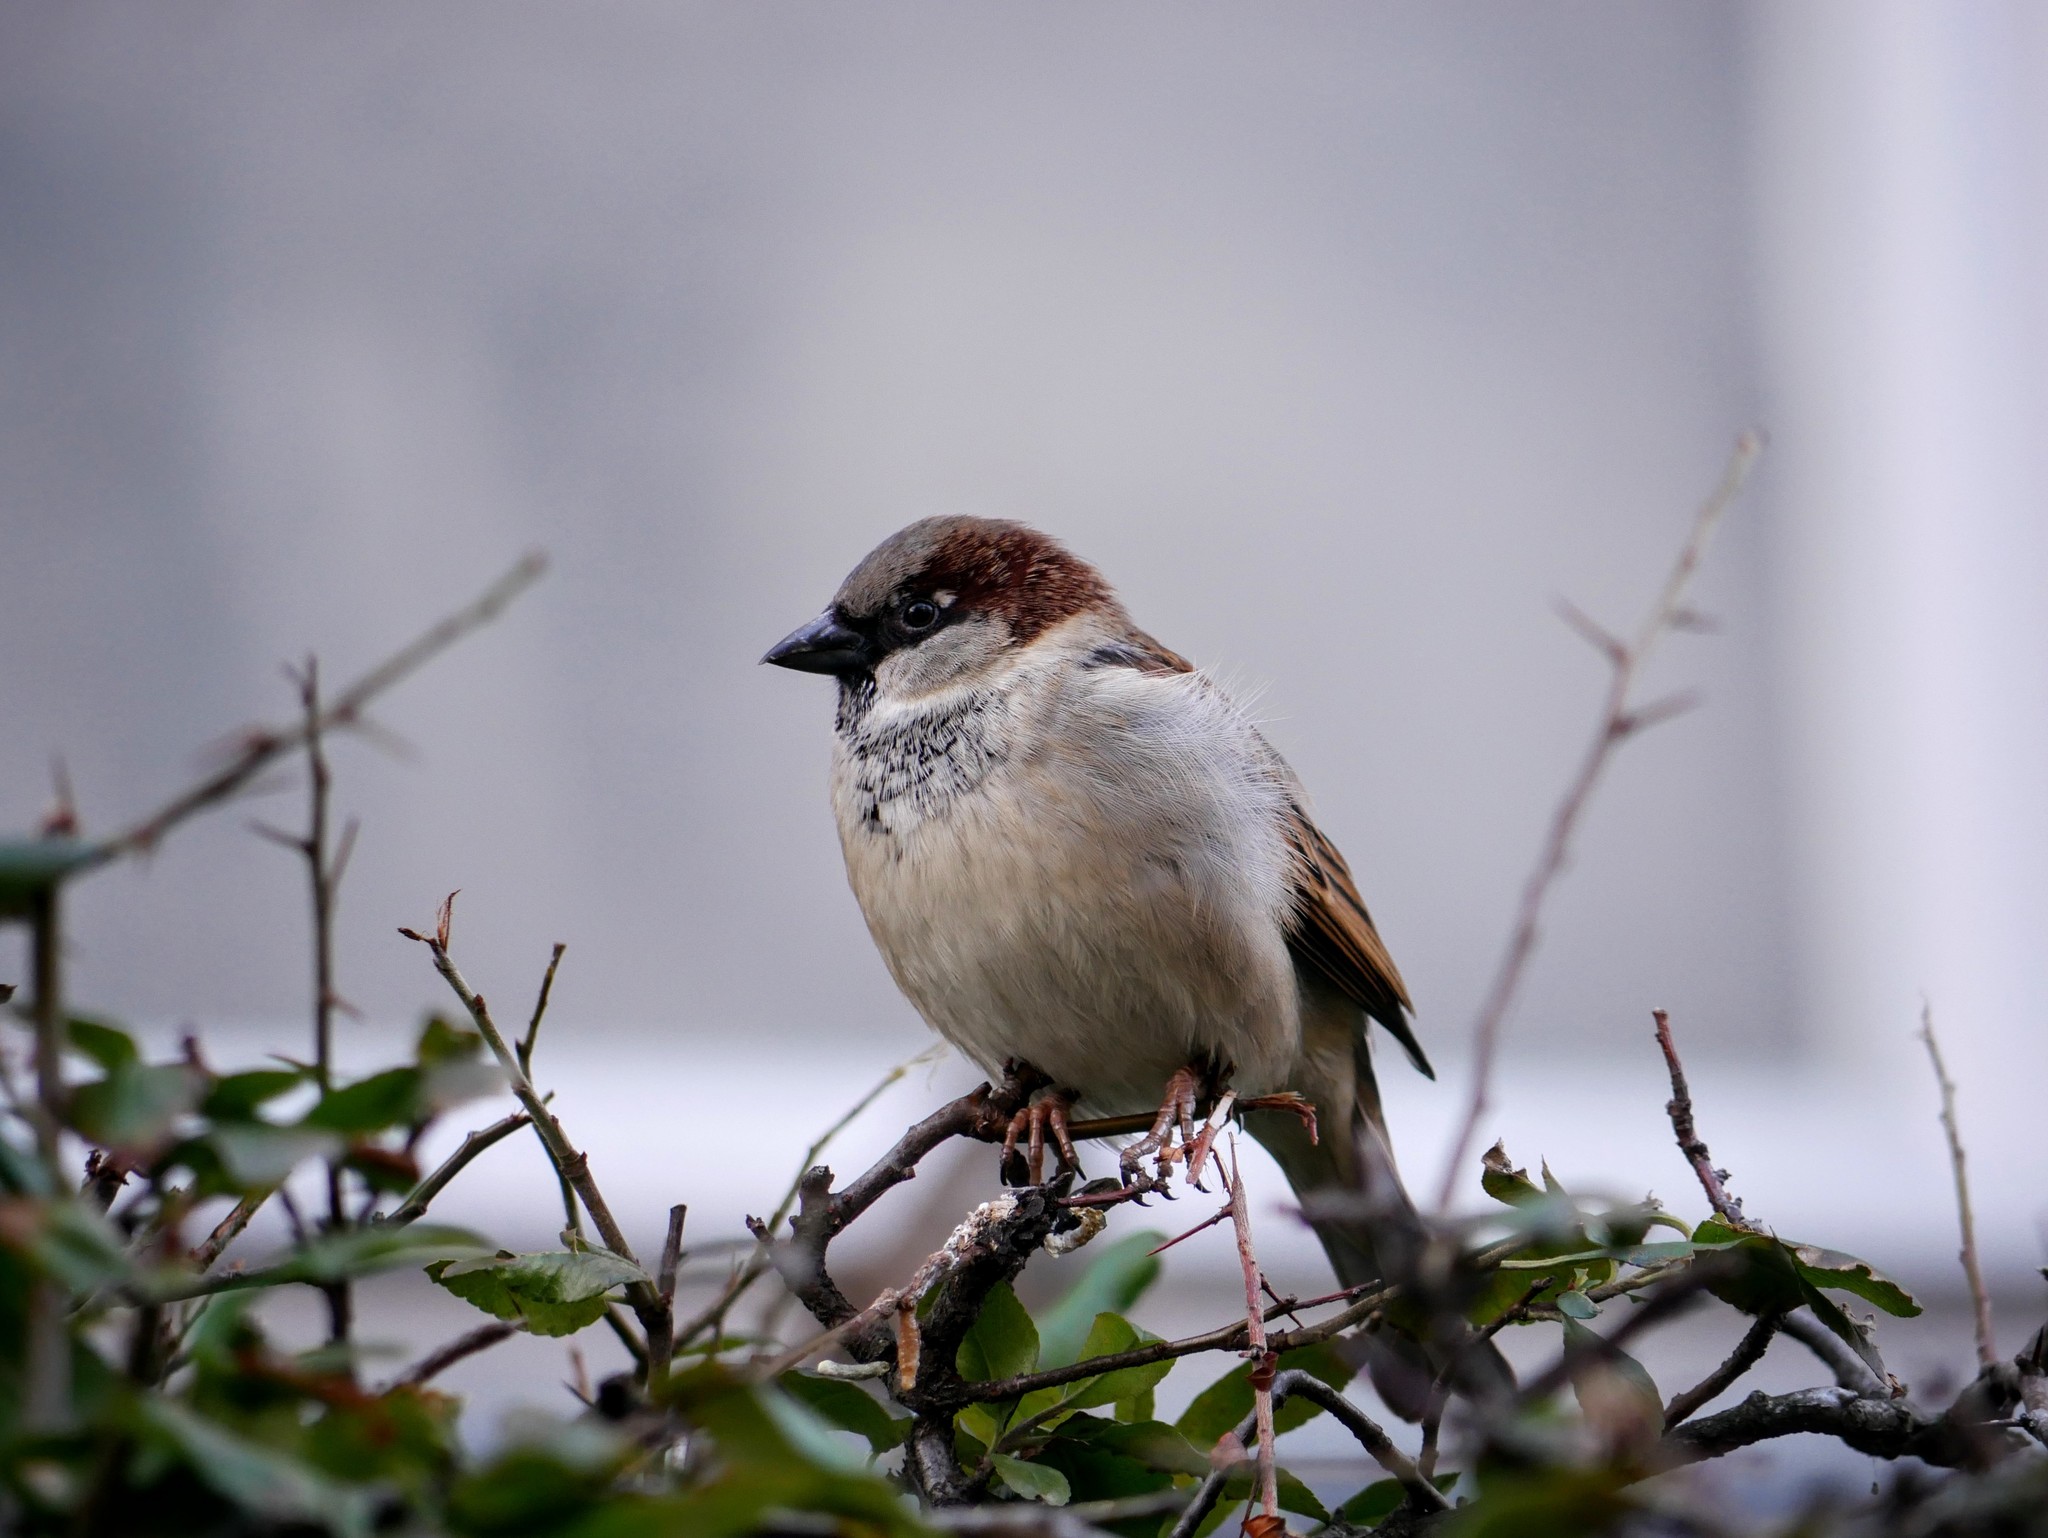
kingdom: Animalia
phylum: Chordata
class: Aves
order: Passeriformes
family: Passeridae
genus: Passer
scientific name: Passer domesticus
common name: House sparrow
